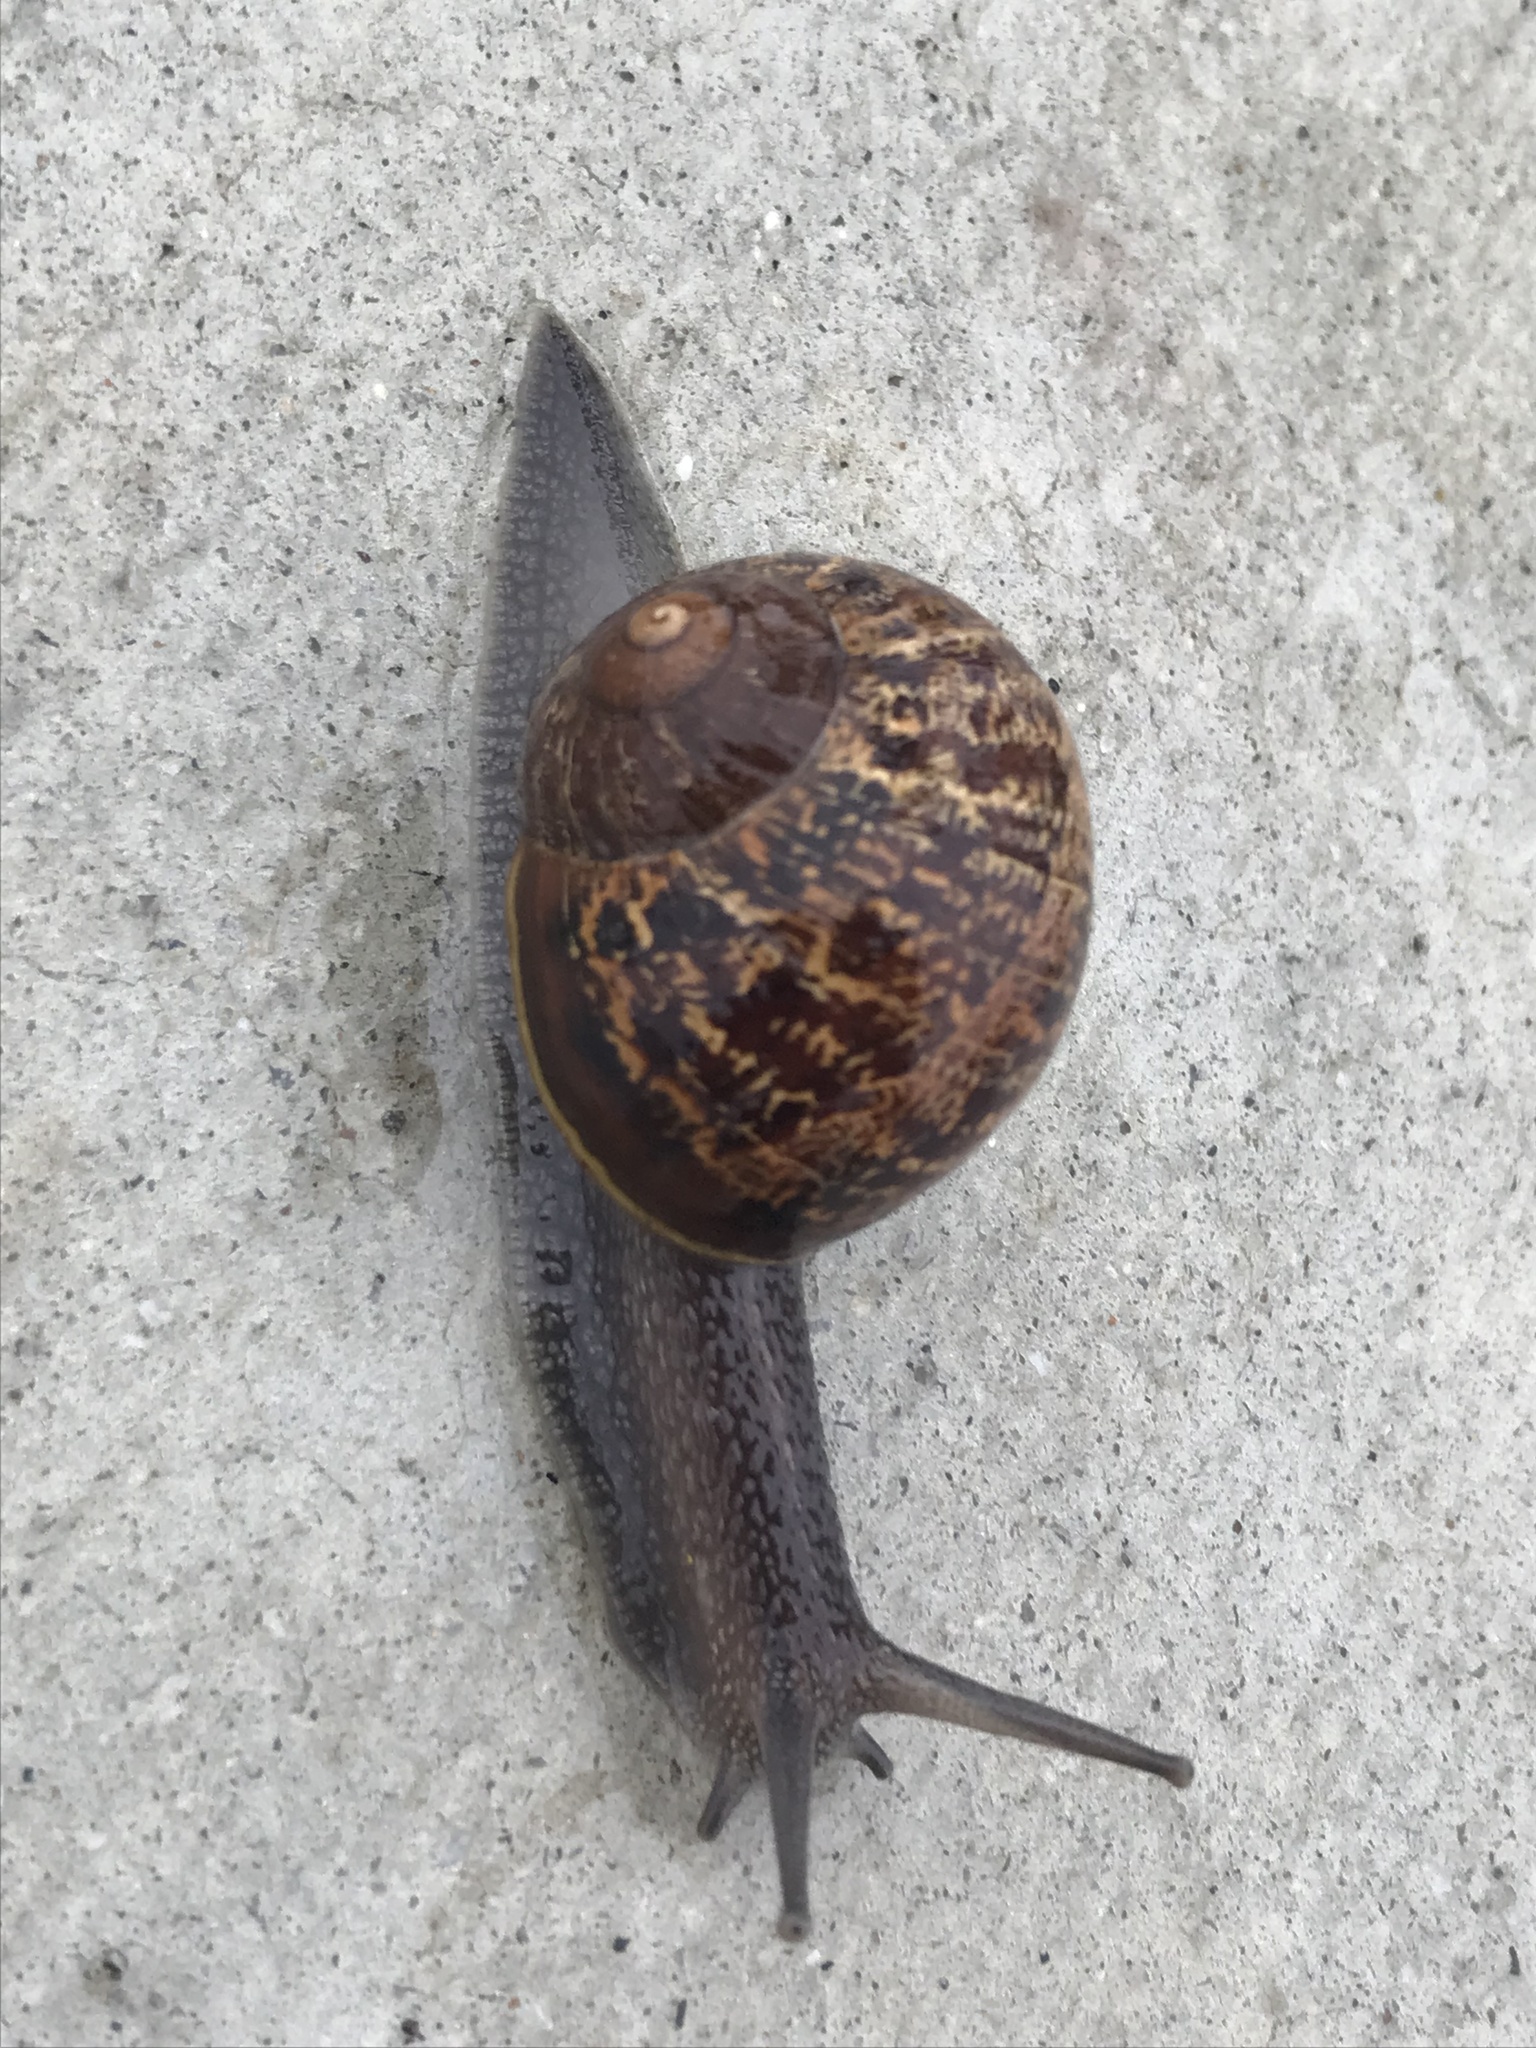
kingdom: Animalia
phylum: Mollusca
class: Gastropoda
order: Stylommatophora
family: Helicidae
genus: Cornu
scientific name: Cornu aspersum
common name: Brown garden snail
